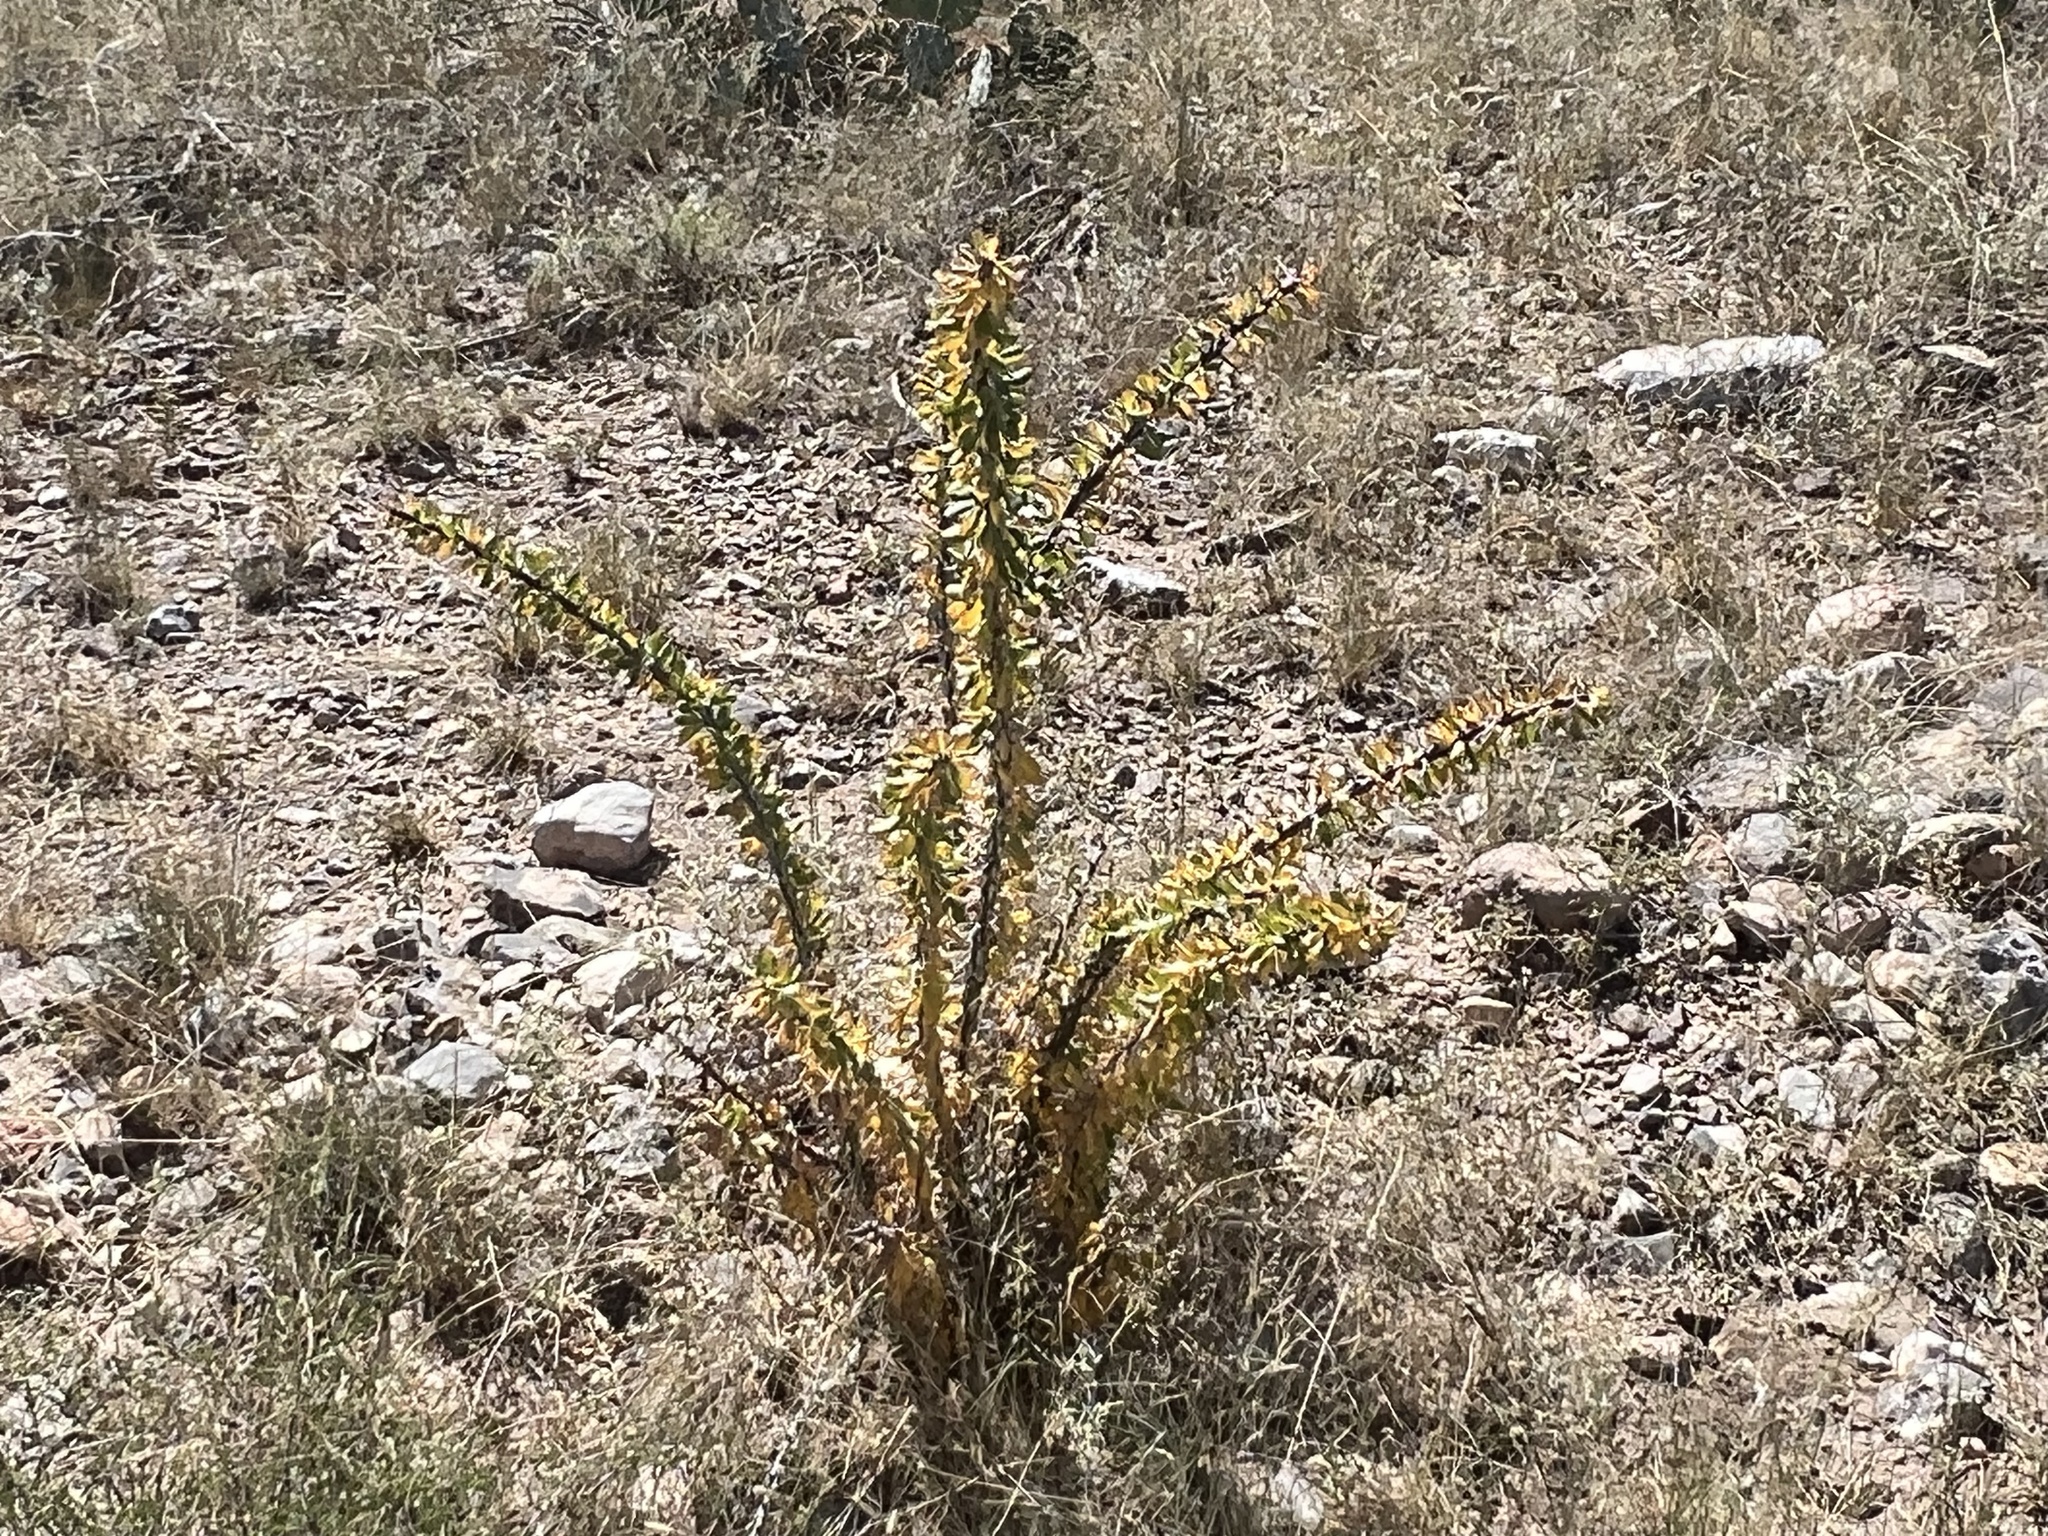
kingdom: Plantae
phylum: Tracheophyta
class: Magnoliopsida
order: Ericales
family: Fouquieriaceae
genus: Fouquieria
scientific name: Fouquieria splendens
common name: Vine-cactus
